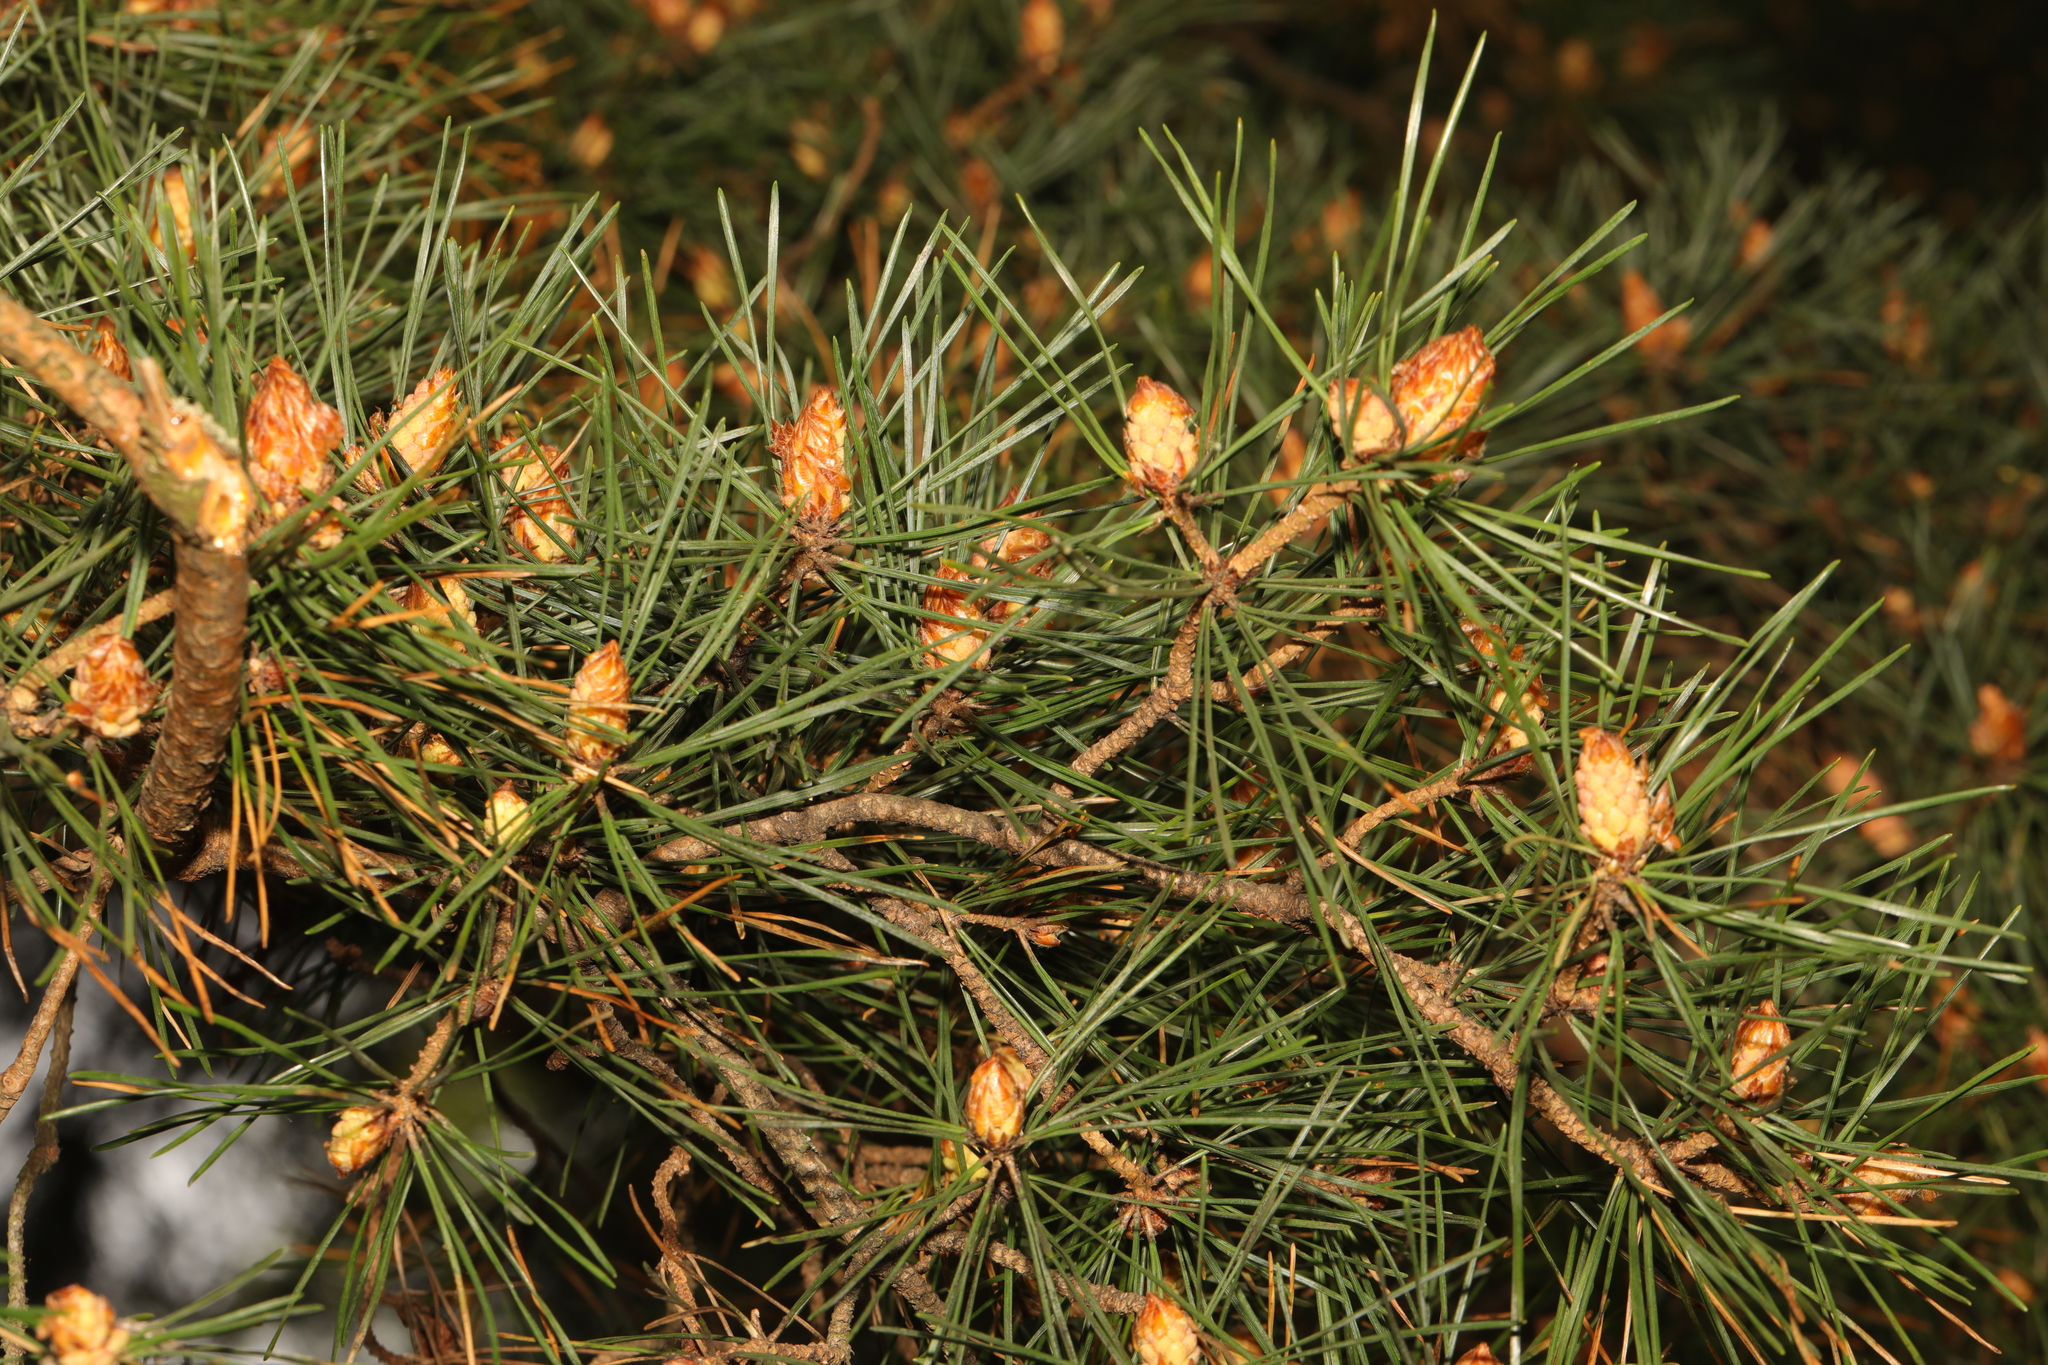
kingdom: Plantae
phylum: Tracheophyta
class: Pinopsida
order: Pinales
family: Pinaceae
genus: Pinus
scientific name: Pinus sylvestris
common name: Scots pine
